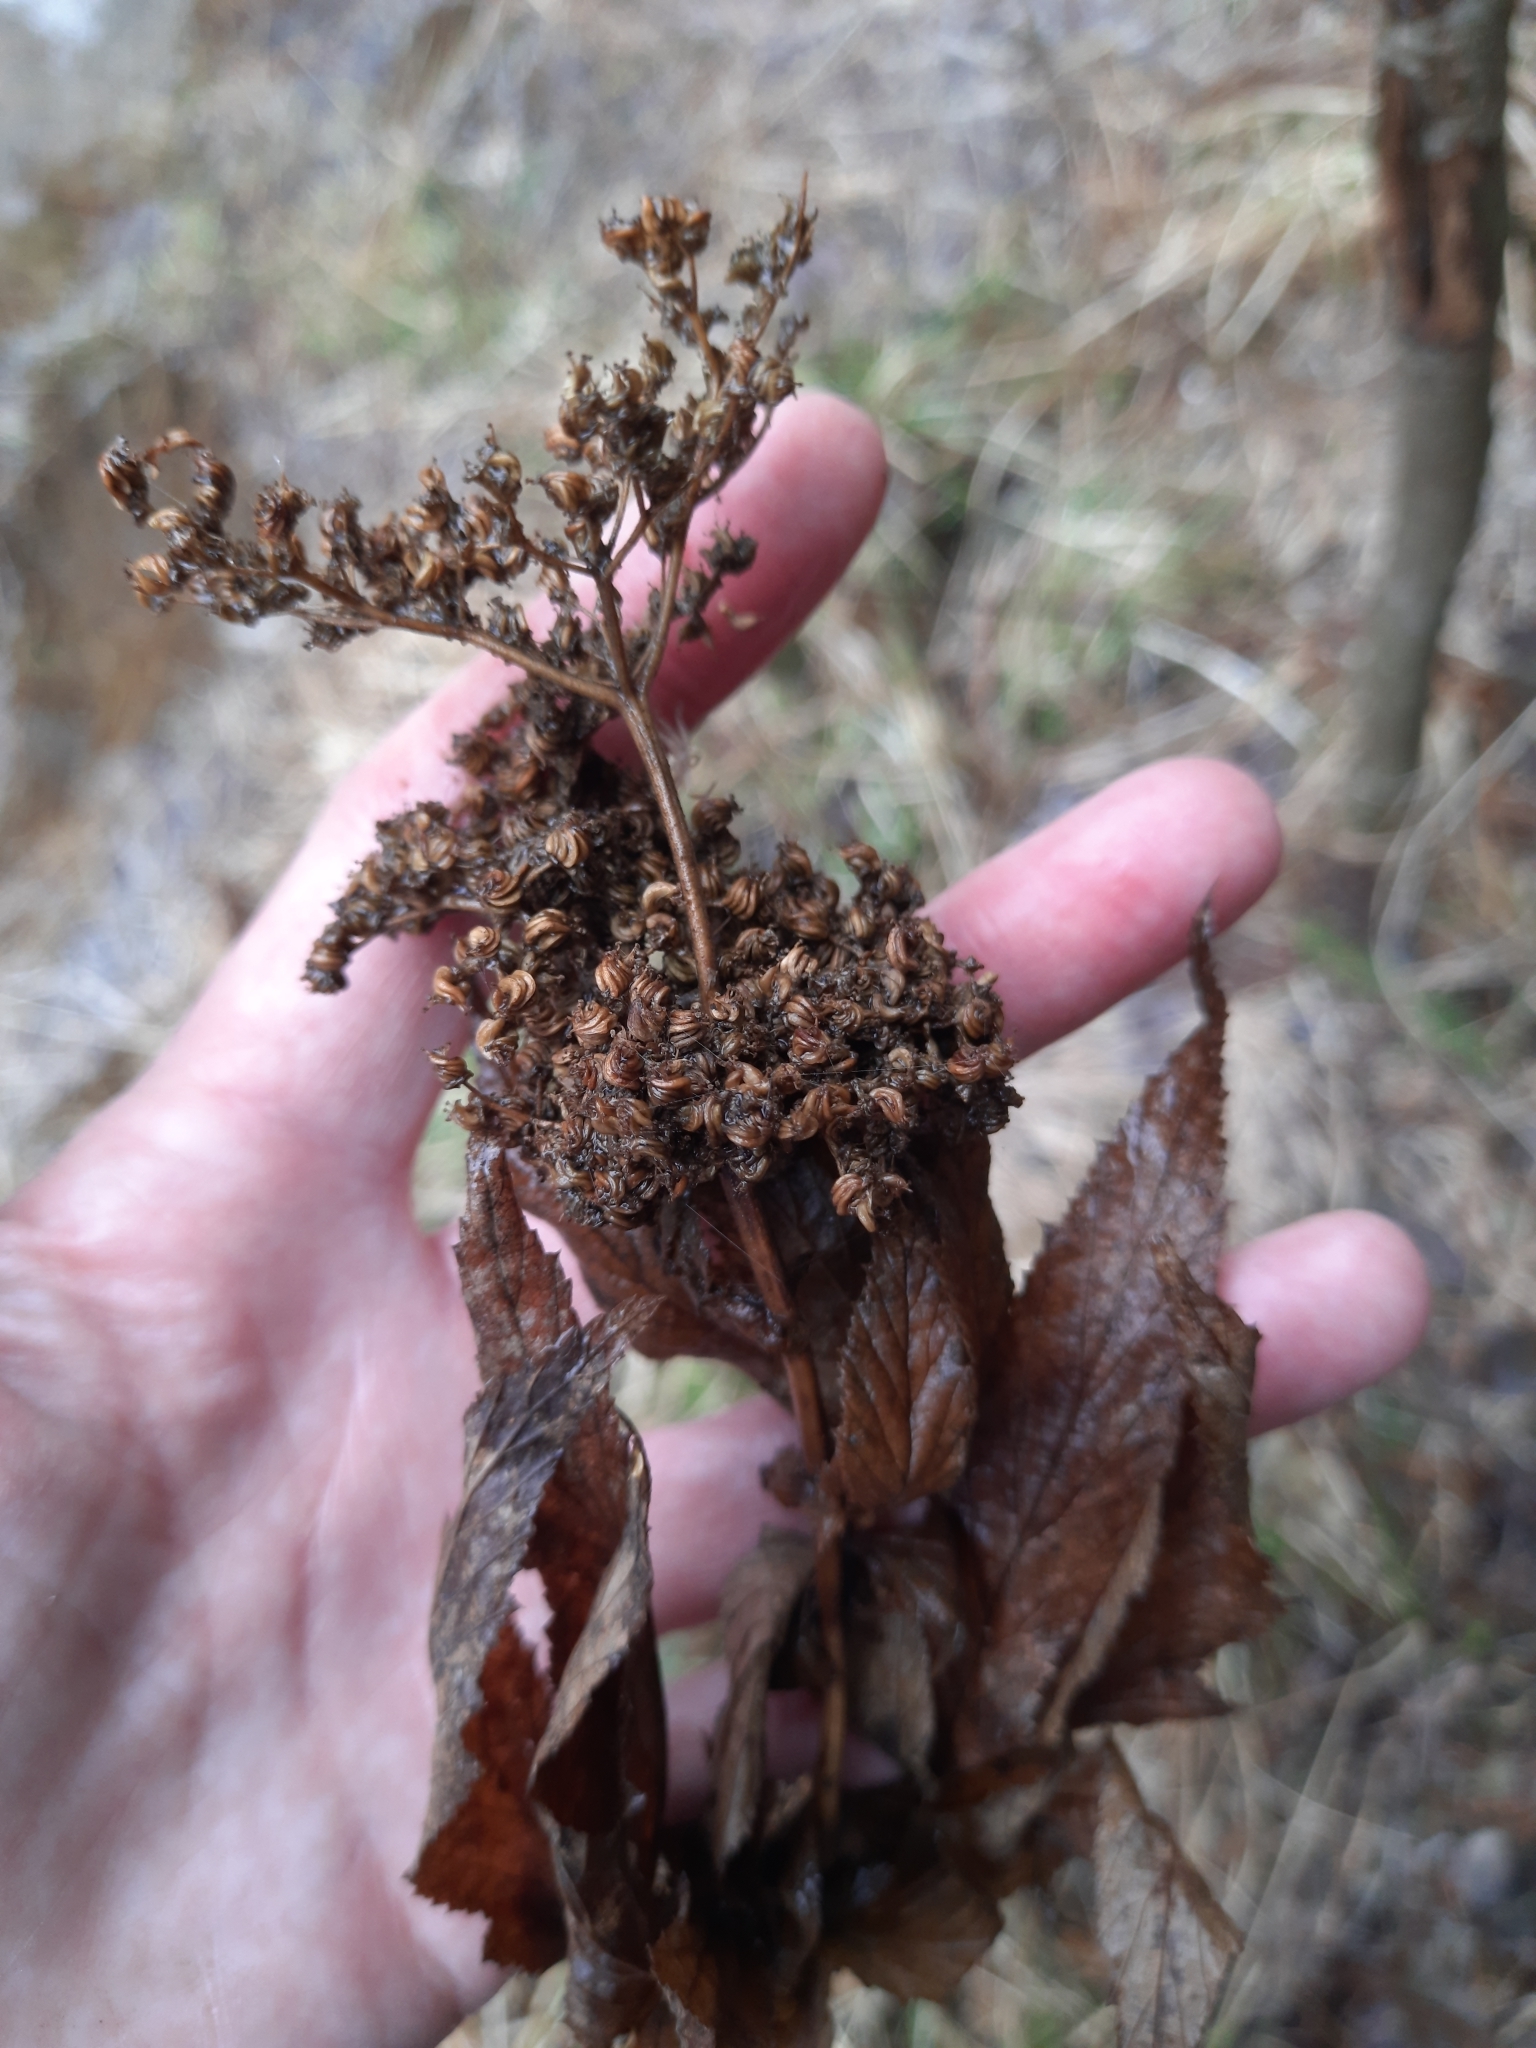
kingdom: Plantae
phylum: Tracheophyta
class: Magnoliopsida
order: Rosales
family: Rosaceae
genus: Filipendula
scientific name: Filipendula ulmaria
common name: Meadowsweet
